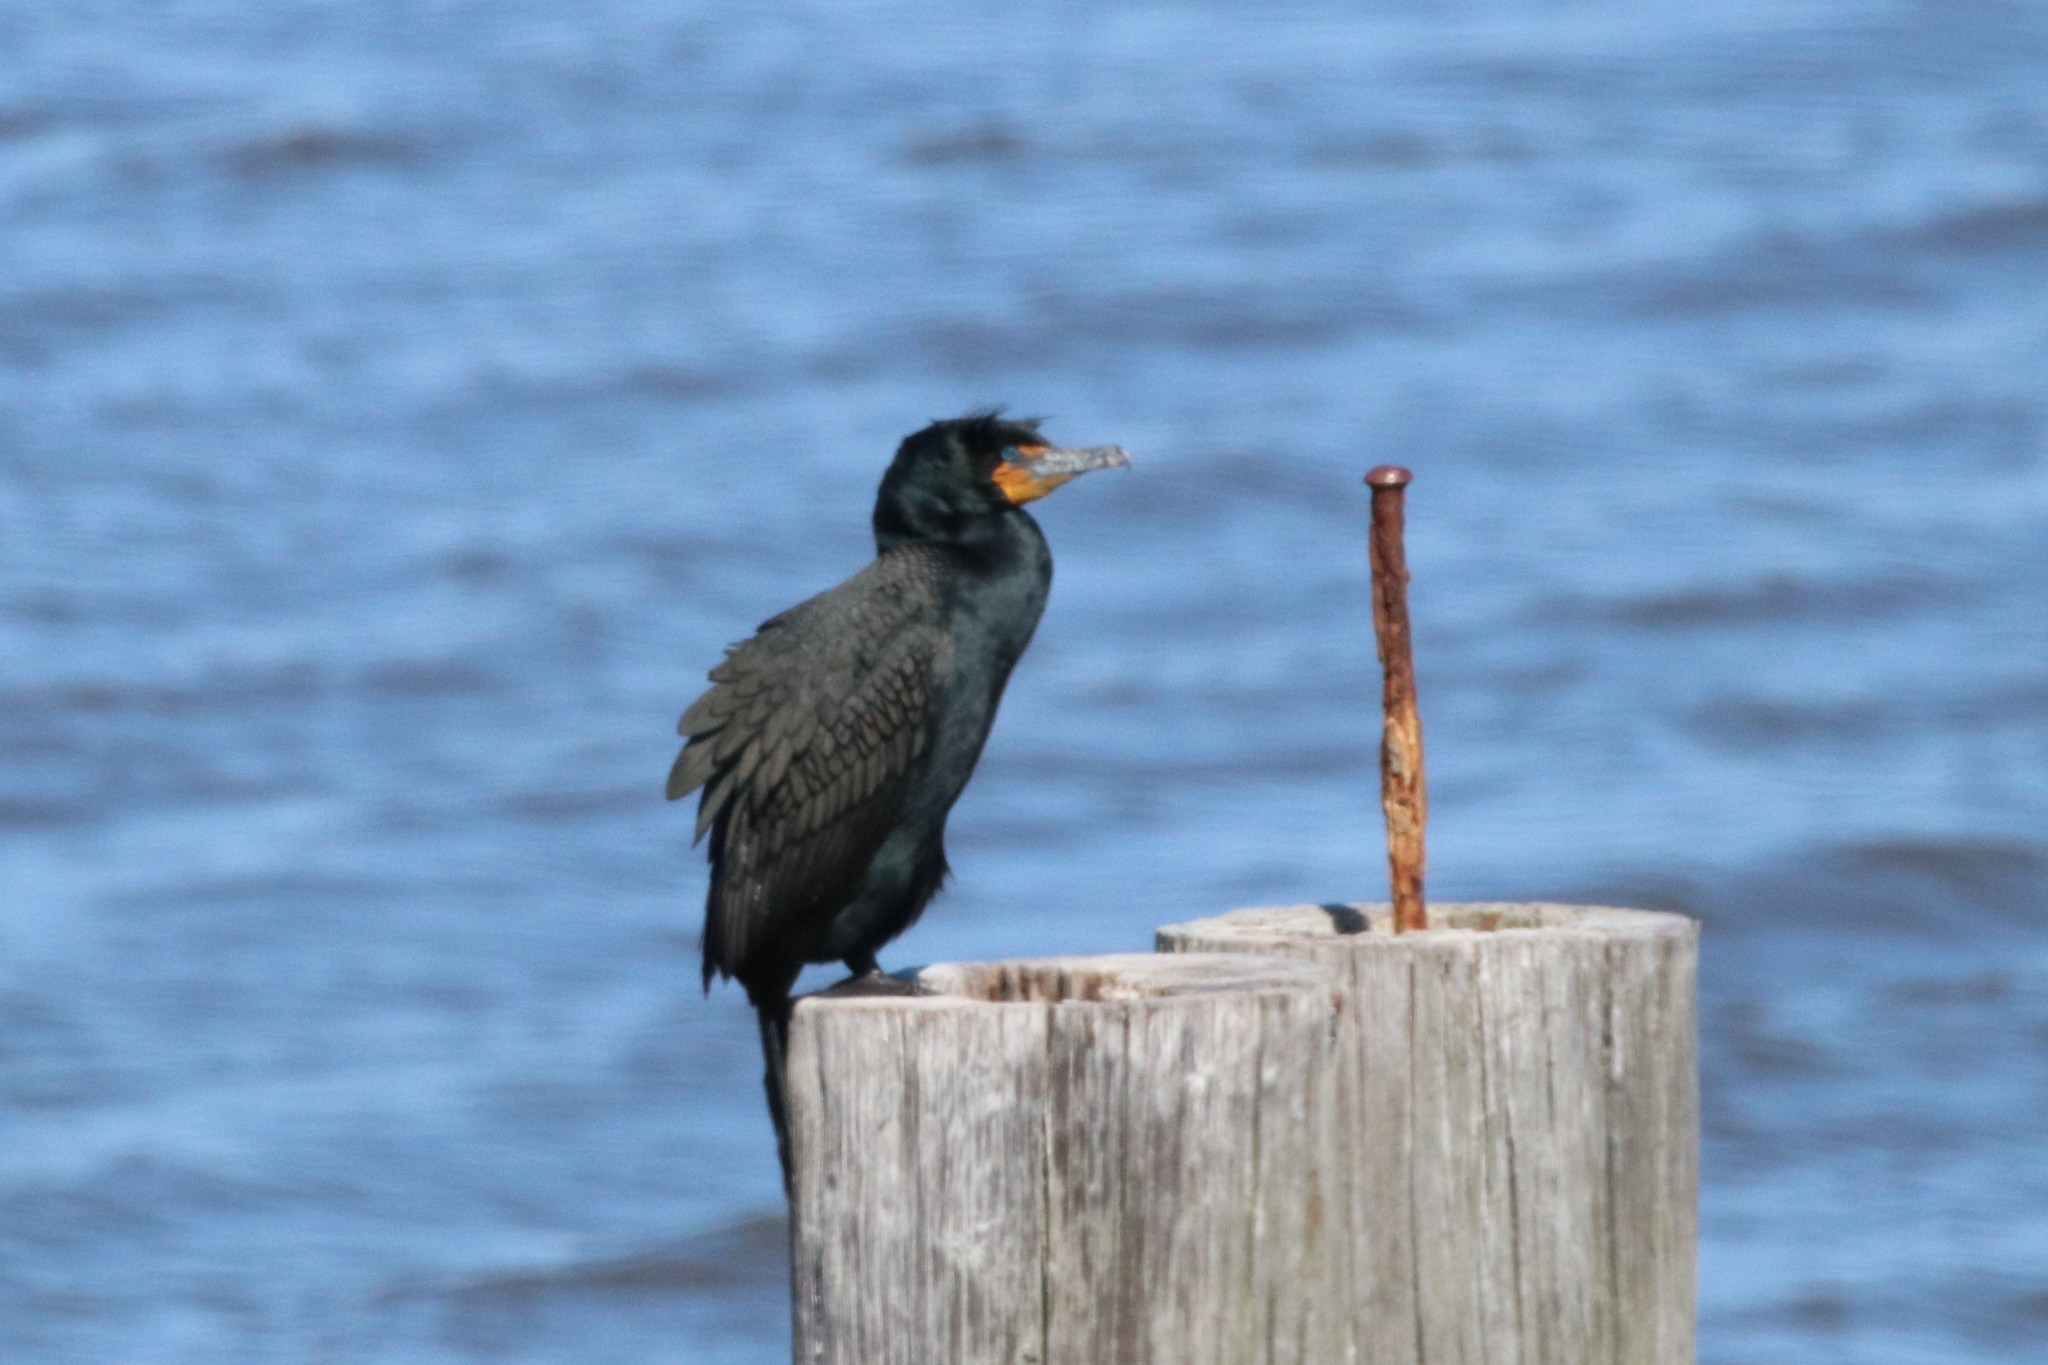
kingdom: Animalia
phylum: Chordata
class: Aves
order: Suliformes
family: Phalacrocoracidae
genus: Phalacrocorax
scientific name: Phalacrocorax auritus
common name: Double-crested cormorant
